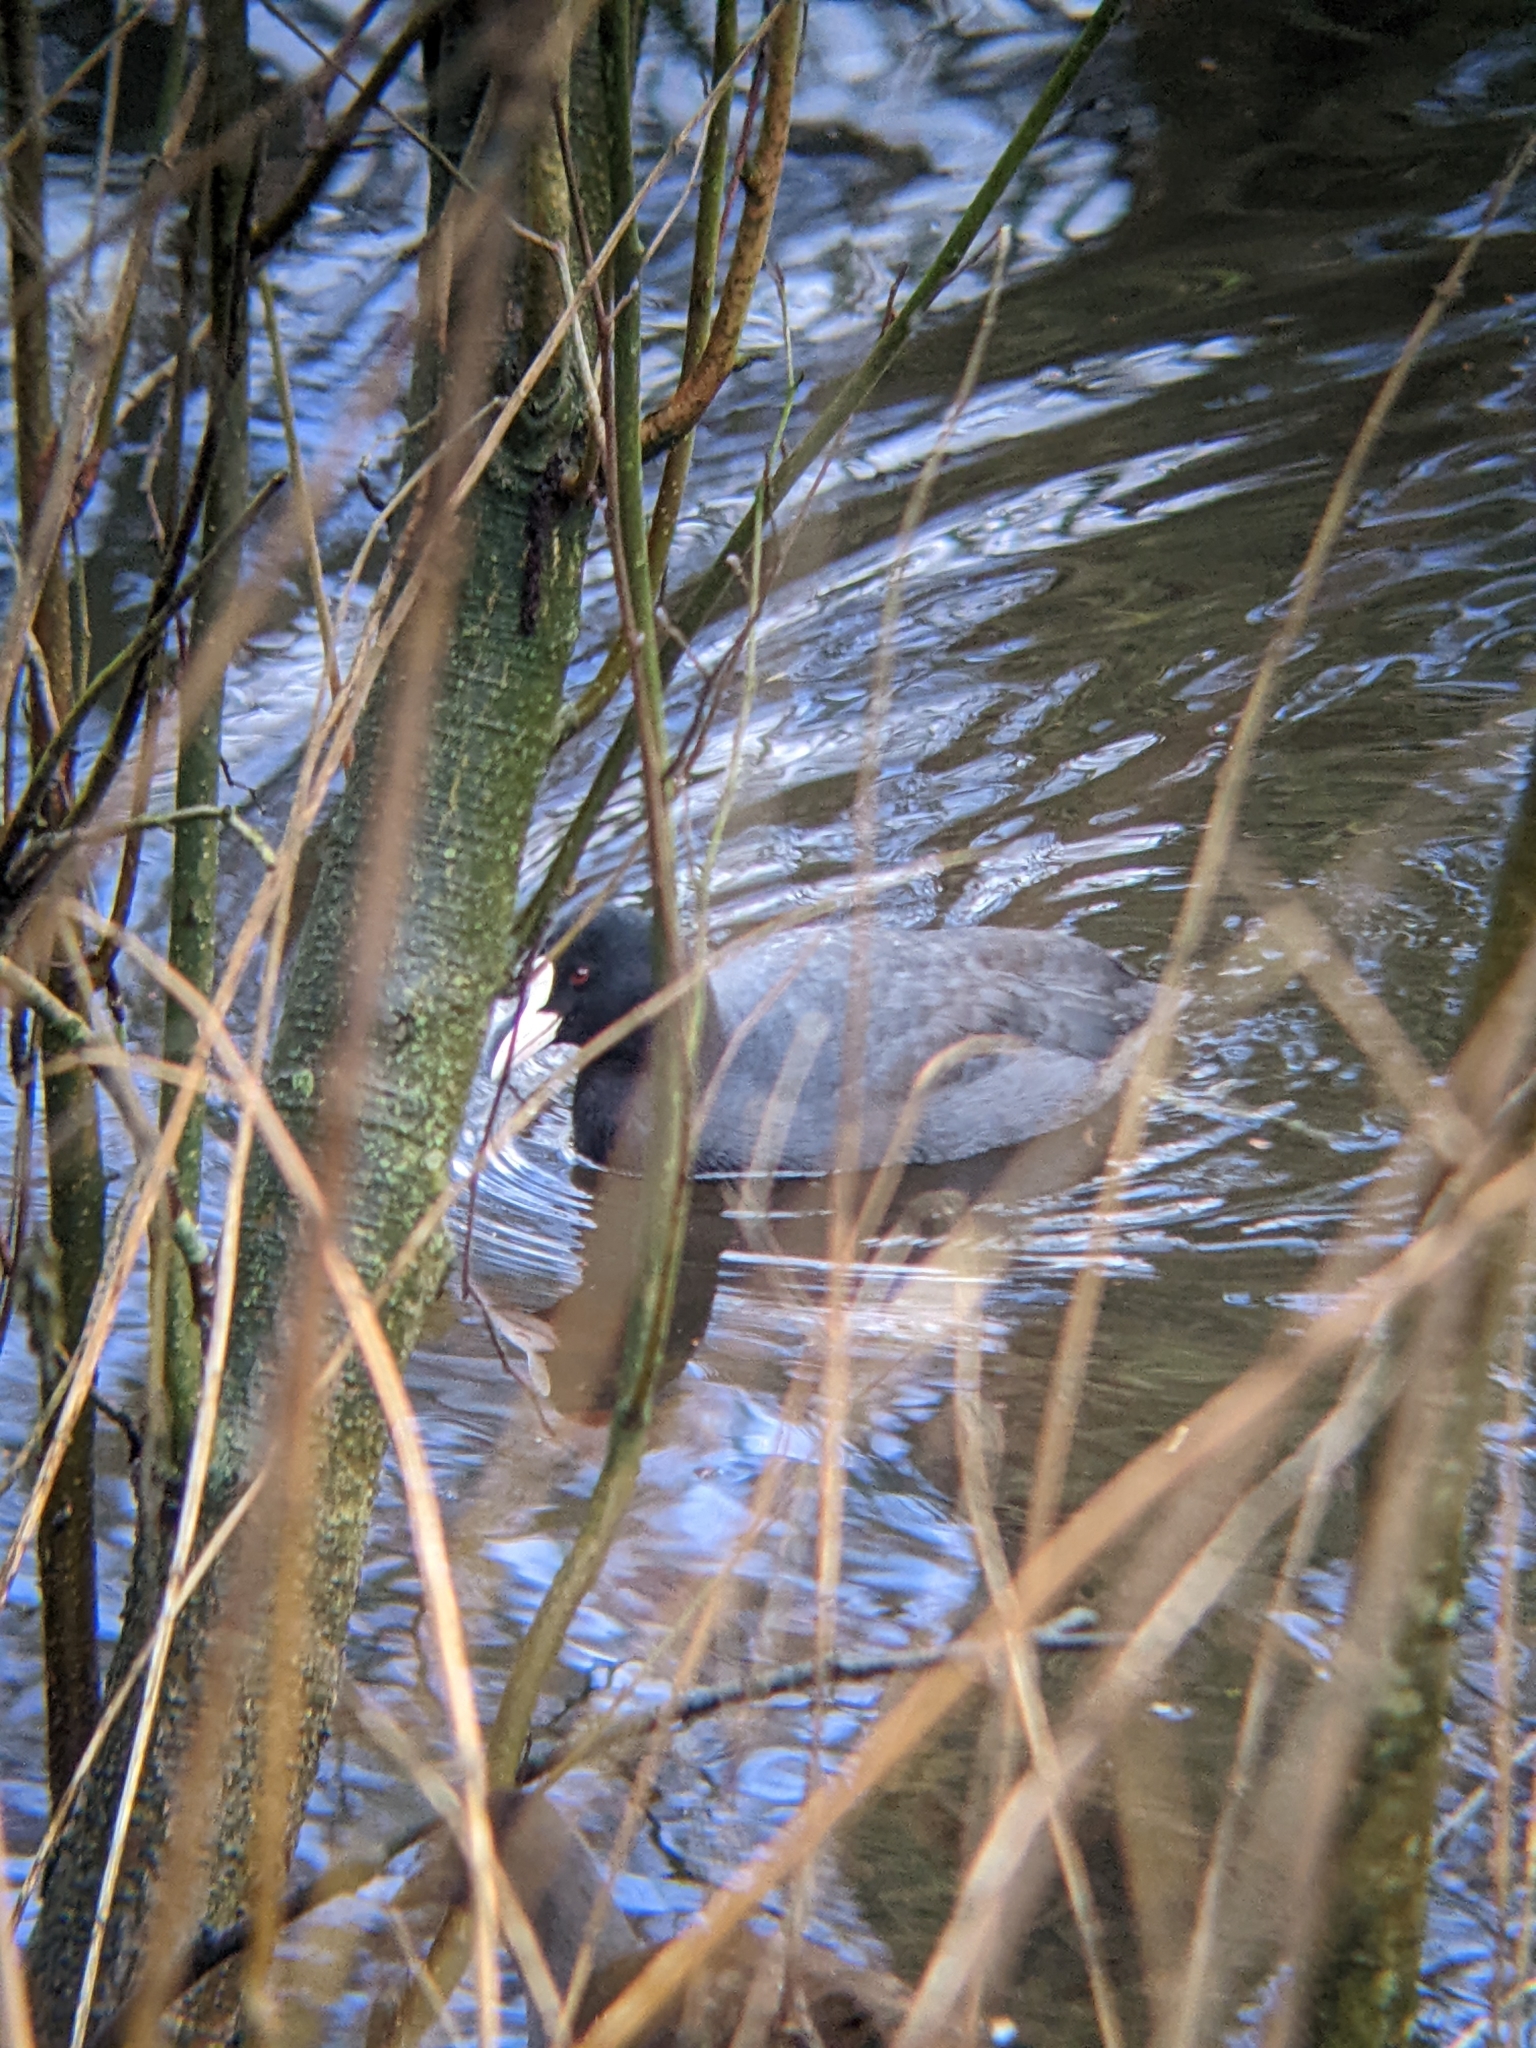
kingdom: Animalia
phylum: Chordata
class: Aves
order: Gruiformes
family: Rallidae
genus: Fulica
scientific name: Fulica atra
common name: Eurasian coot
